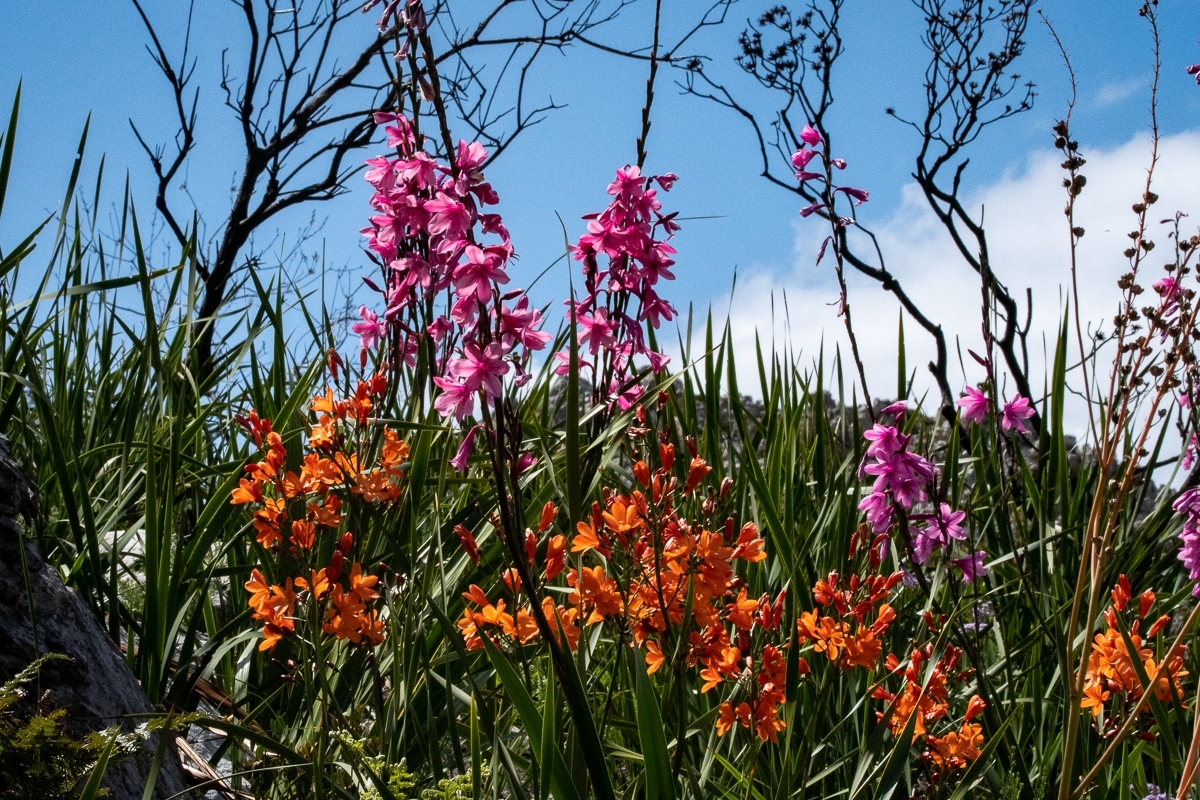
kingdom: Plantae
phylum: Tracheophyta
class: Liliopsida
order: Asparagales
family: Iridaceae
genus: Watsonia
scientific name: Watsonia borbonica
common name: Bugle-lily
